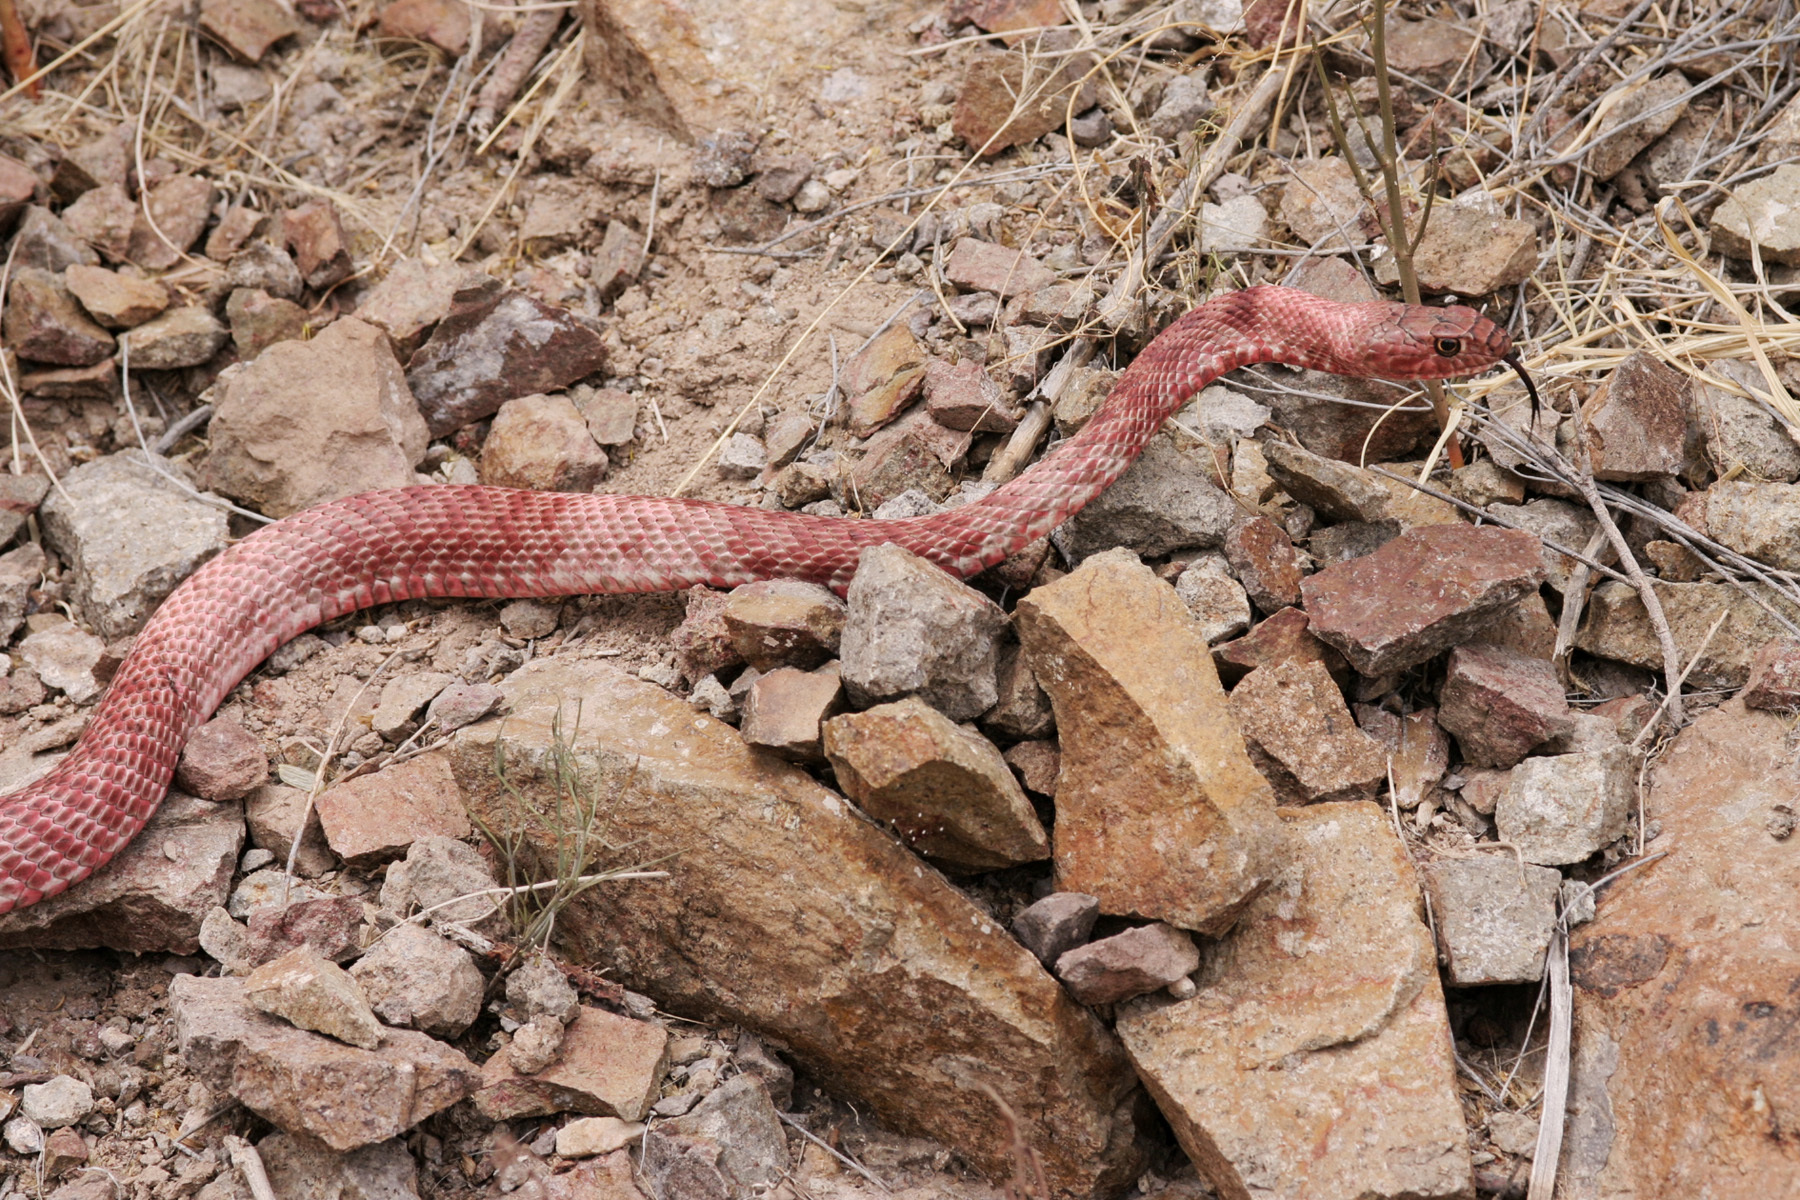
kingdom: Animalia
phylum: Chordata
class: Squamata
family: Colubridae
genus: Masticophis
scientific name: Masticophis flagellum
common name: Coachwhip
